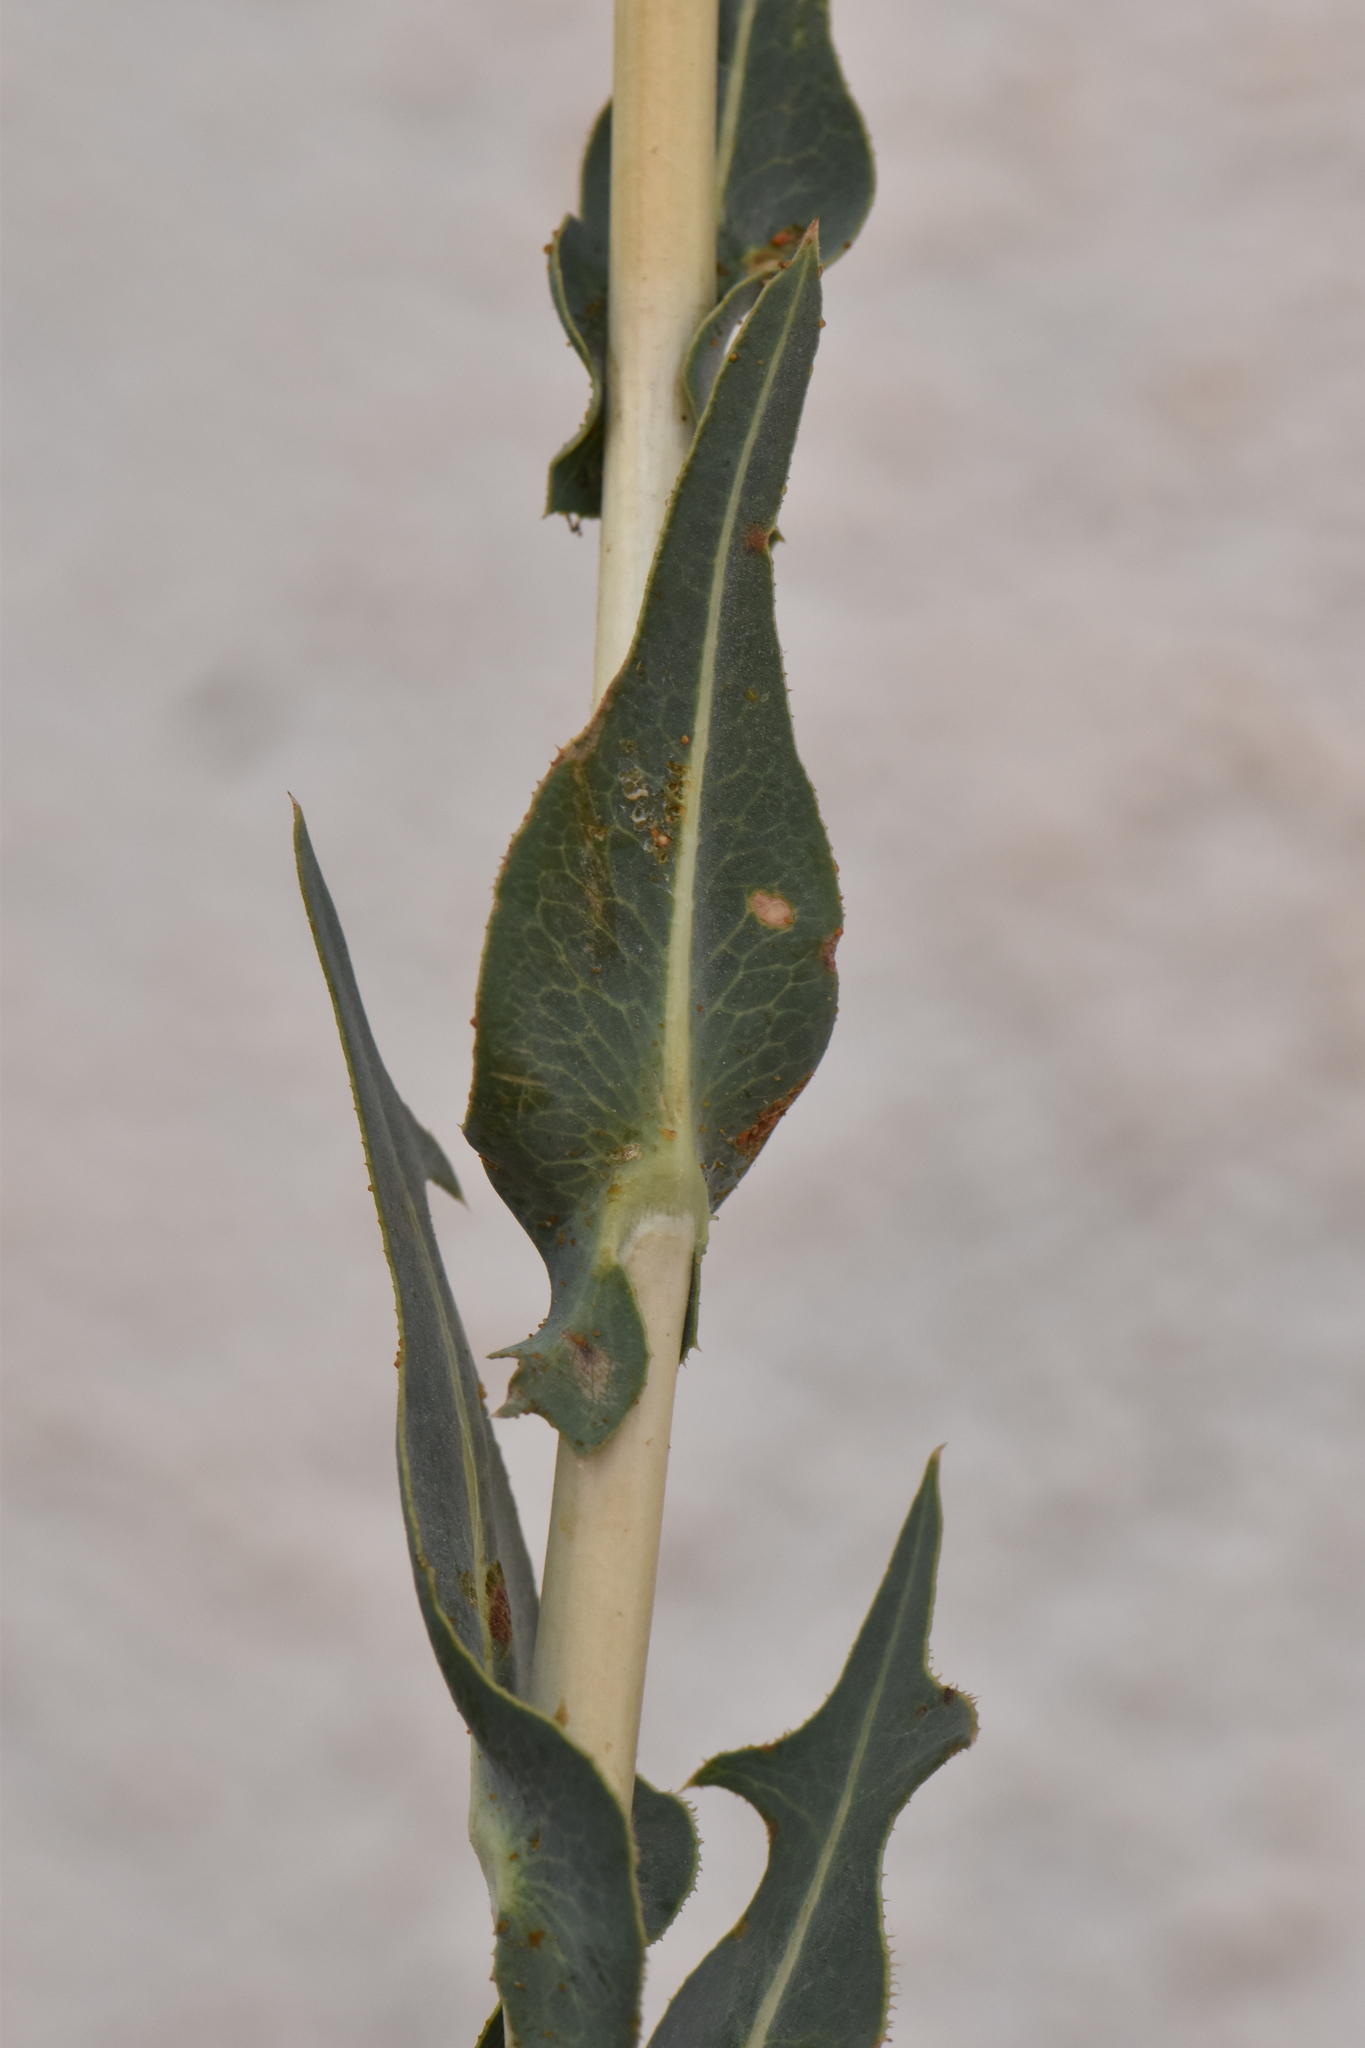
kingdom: Plantae
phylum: Tracheophyta
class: Magnoliopsida
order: Asterales
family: Asteraceae
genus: Lactuca
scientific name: Lactuca serriola
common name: Prickly lettuce
